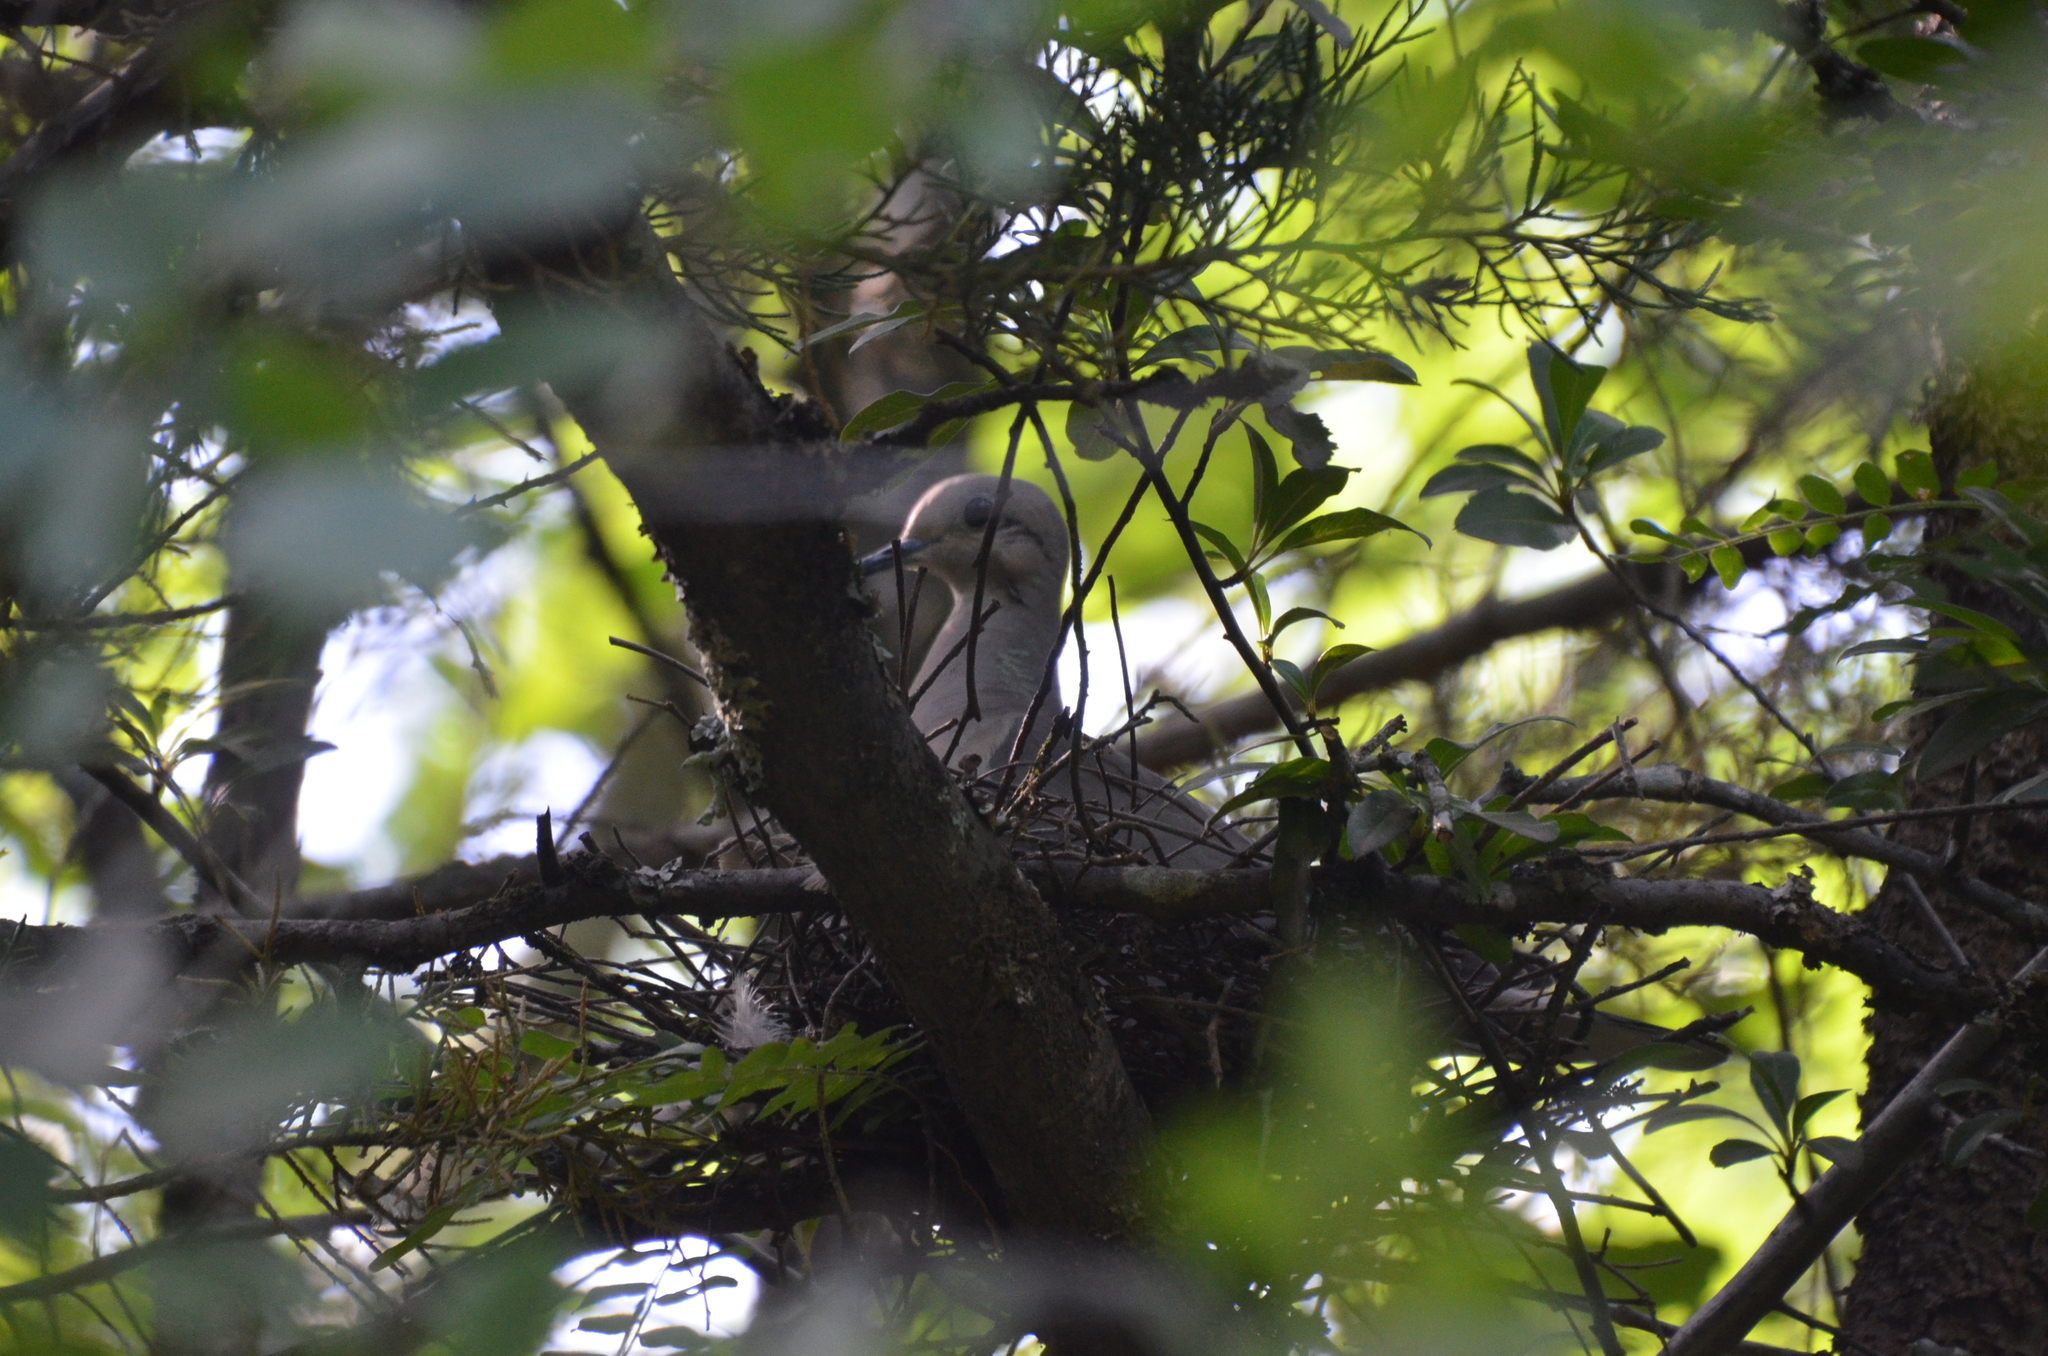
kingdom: Animalia
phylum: Chordata
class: Aves
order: Columbiformes
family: Columbidae
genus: Zenaida
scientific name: Zenaida auriculata
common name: Eared dove
